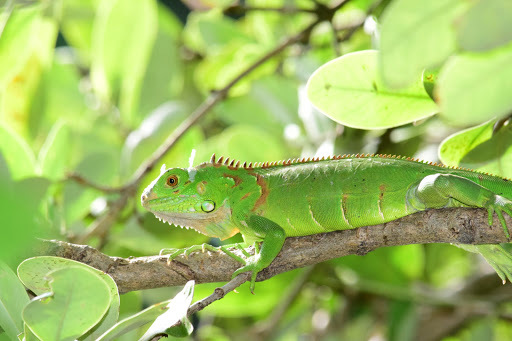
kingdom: Animalia
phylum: Chordata
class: Squamata
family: Iguanidae
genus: Iguana
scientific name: Iguana iguana
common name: Green iguana
